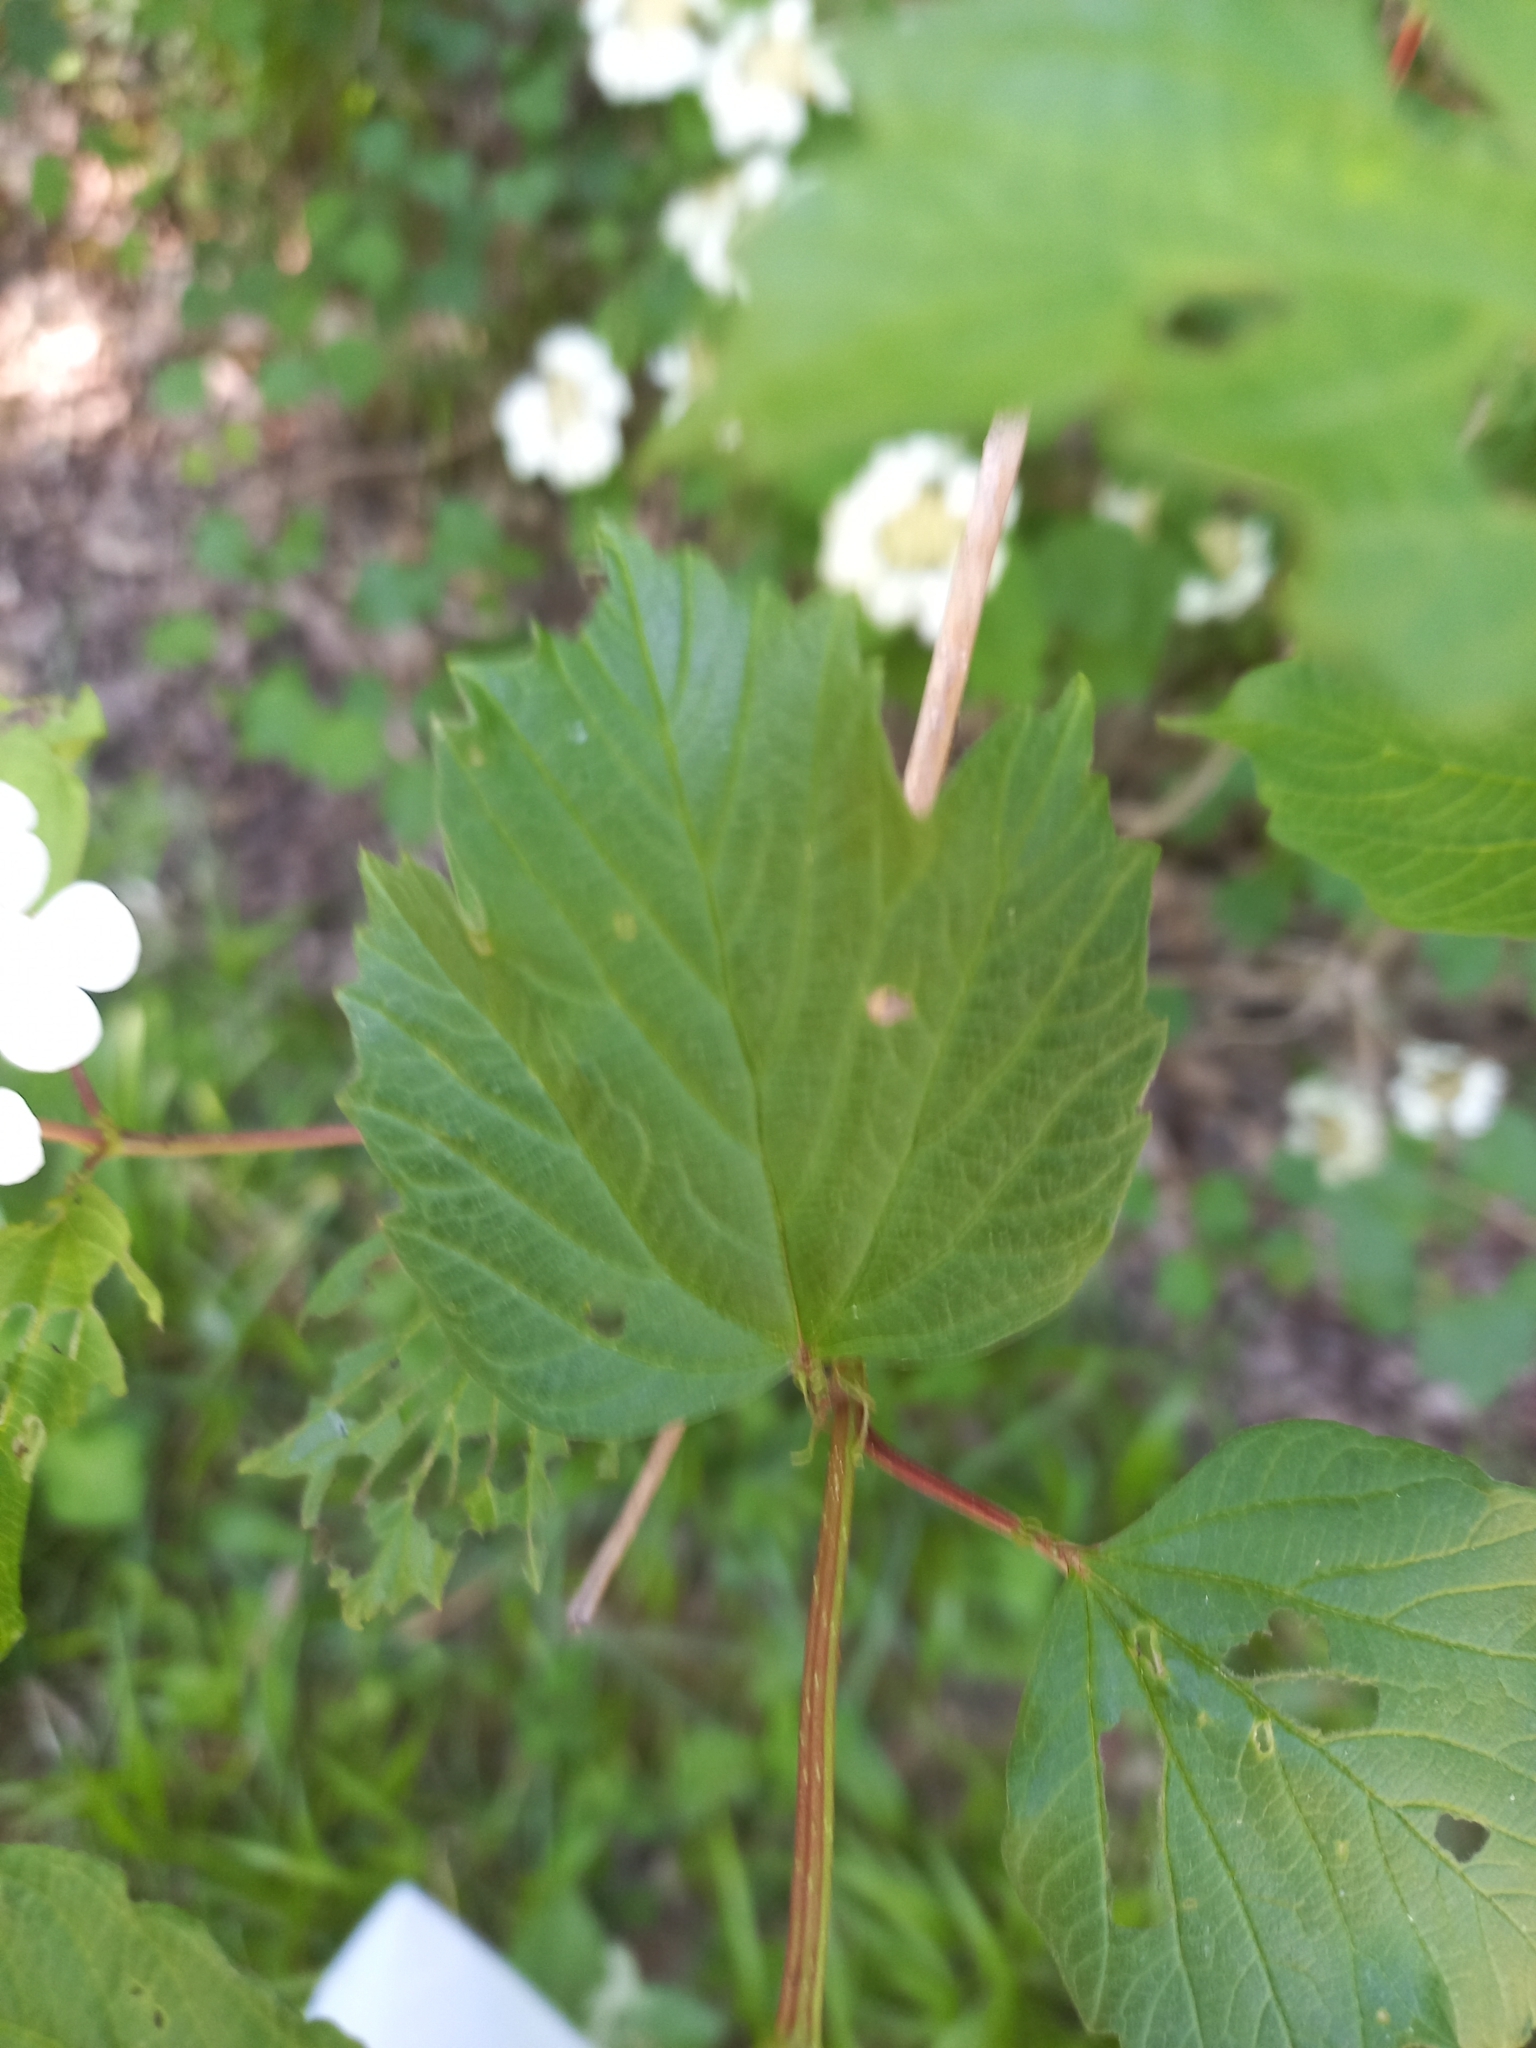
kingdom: Plantae
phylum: Tracheophyta
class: Magnoliopsida
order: Dipsacales
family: Viburnaceae
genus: Viburnum
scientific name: Viburnum opulus
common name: Guelder-rose
